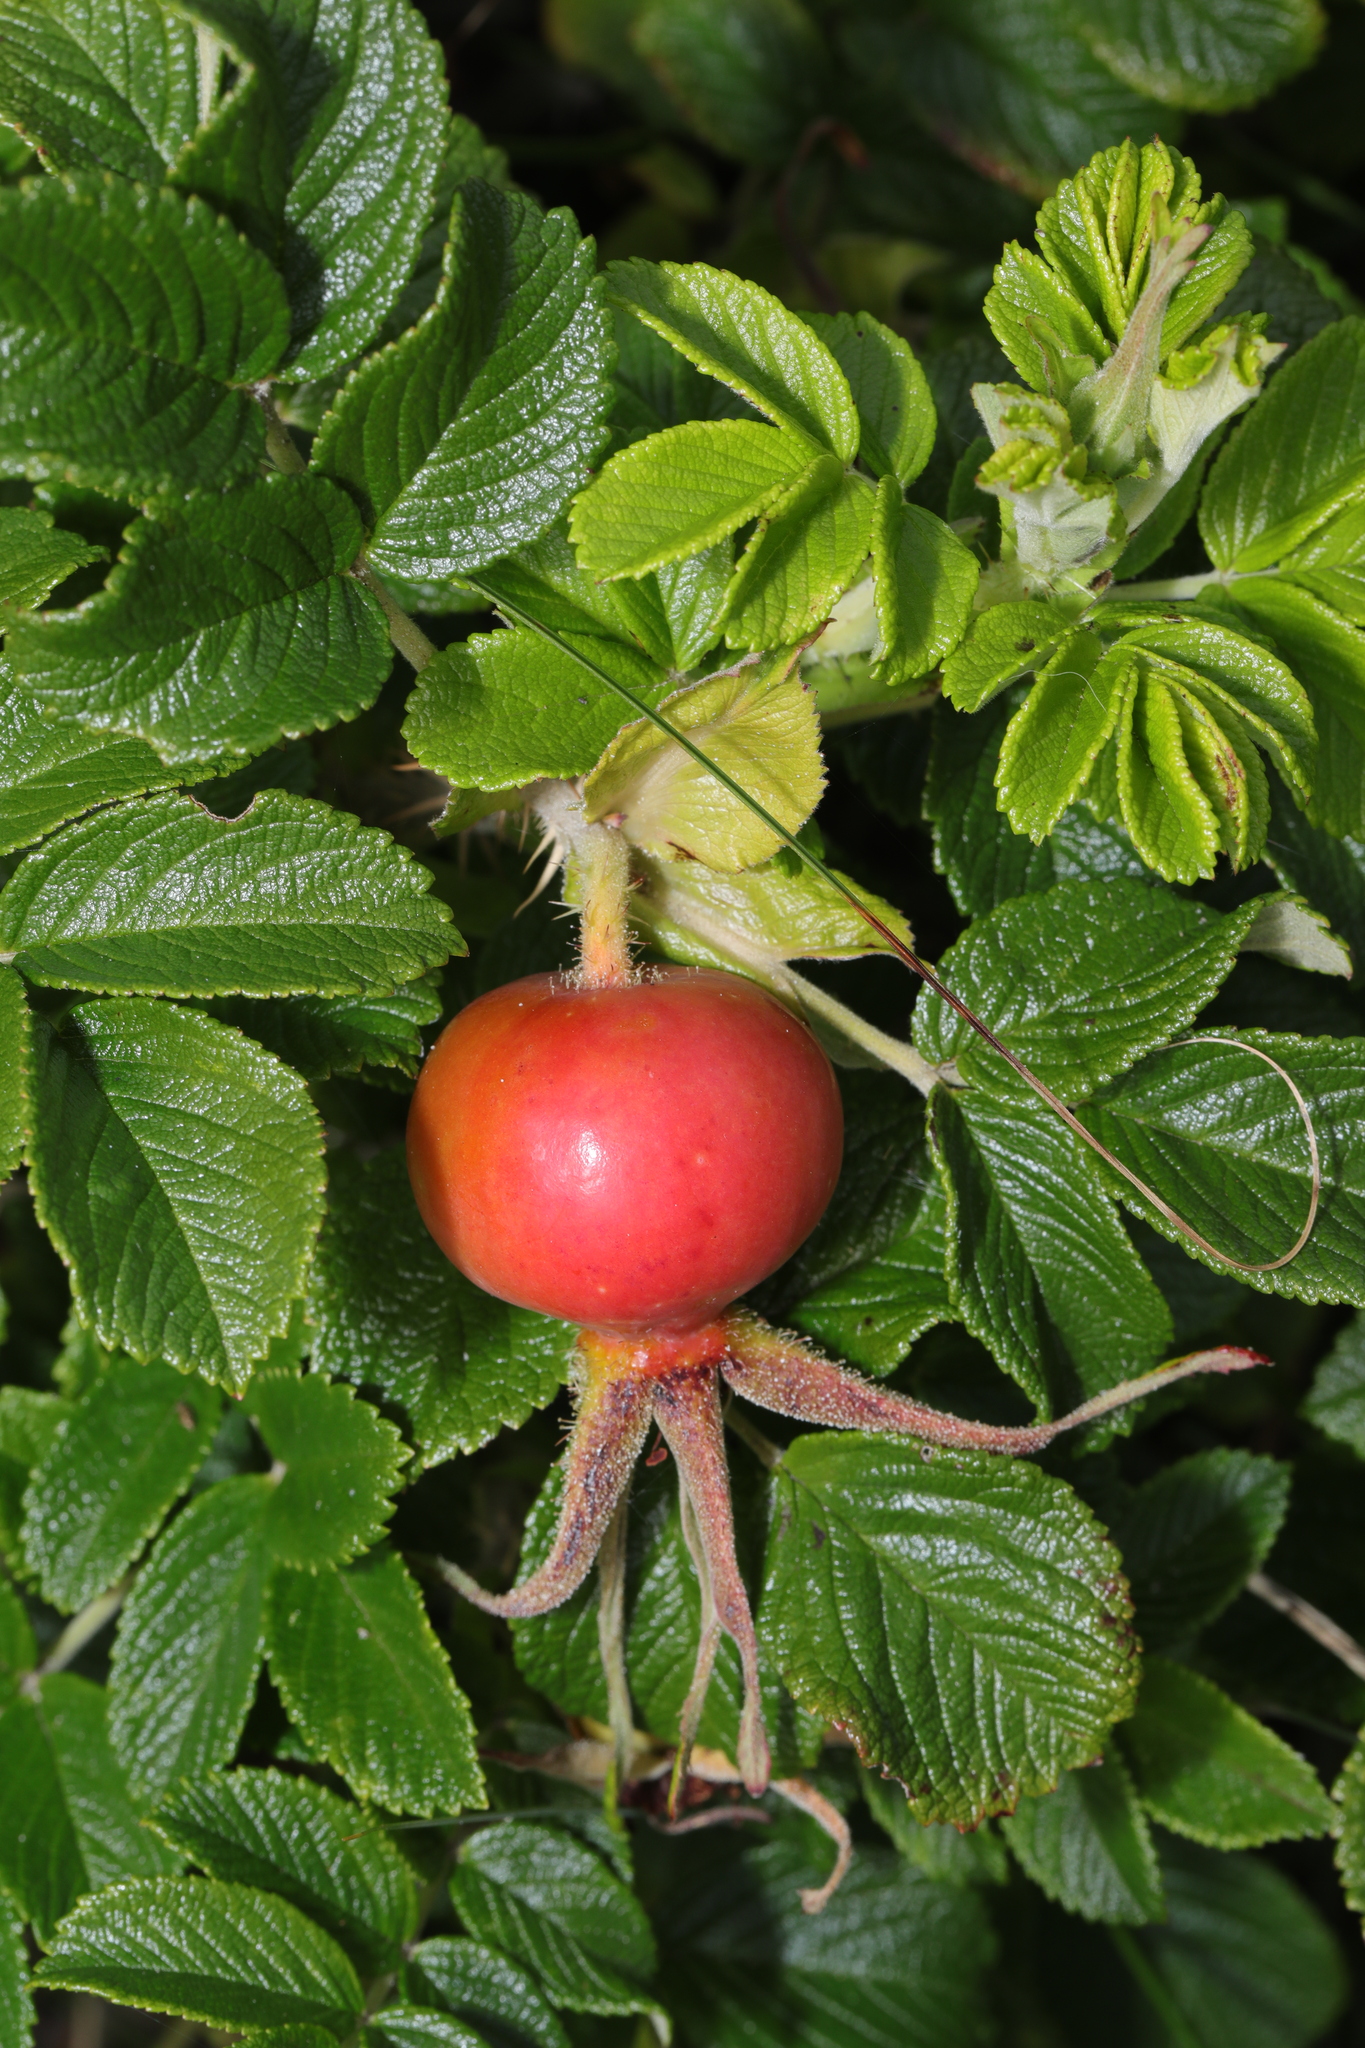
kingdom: Plantae
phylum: Tracheophyta
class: Magnoliopsida
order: Rosales
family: Rosaceae
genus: Rosa
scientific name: Rosa rugosa
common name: Japanese rose
